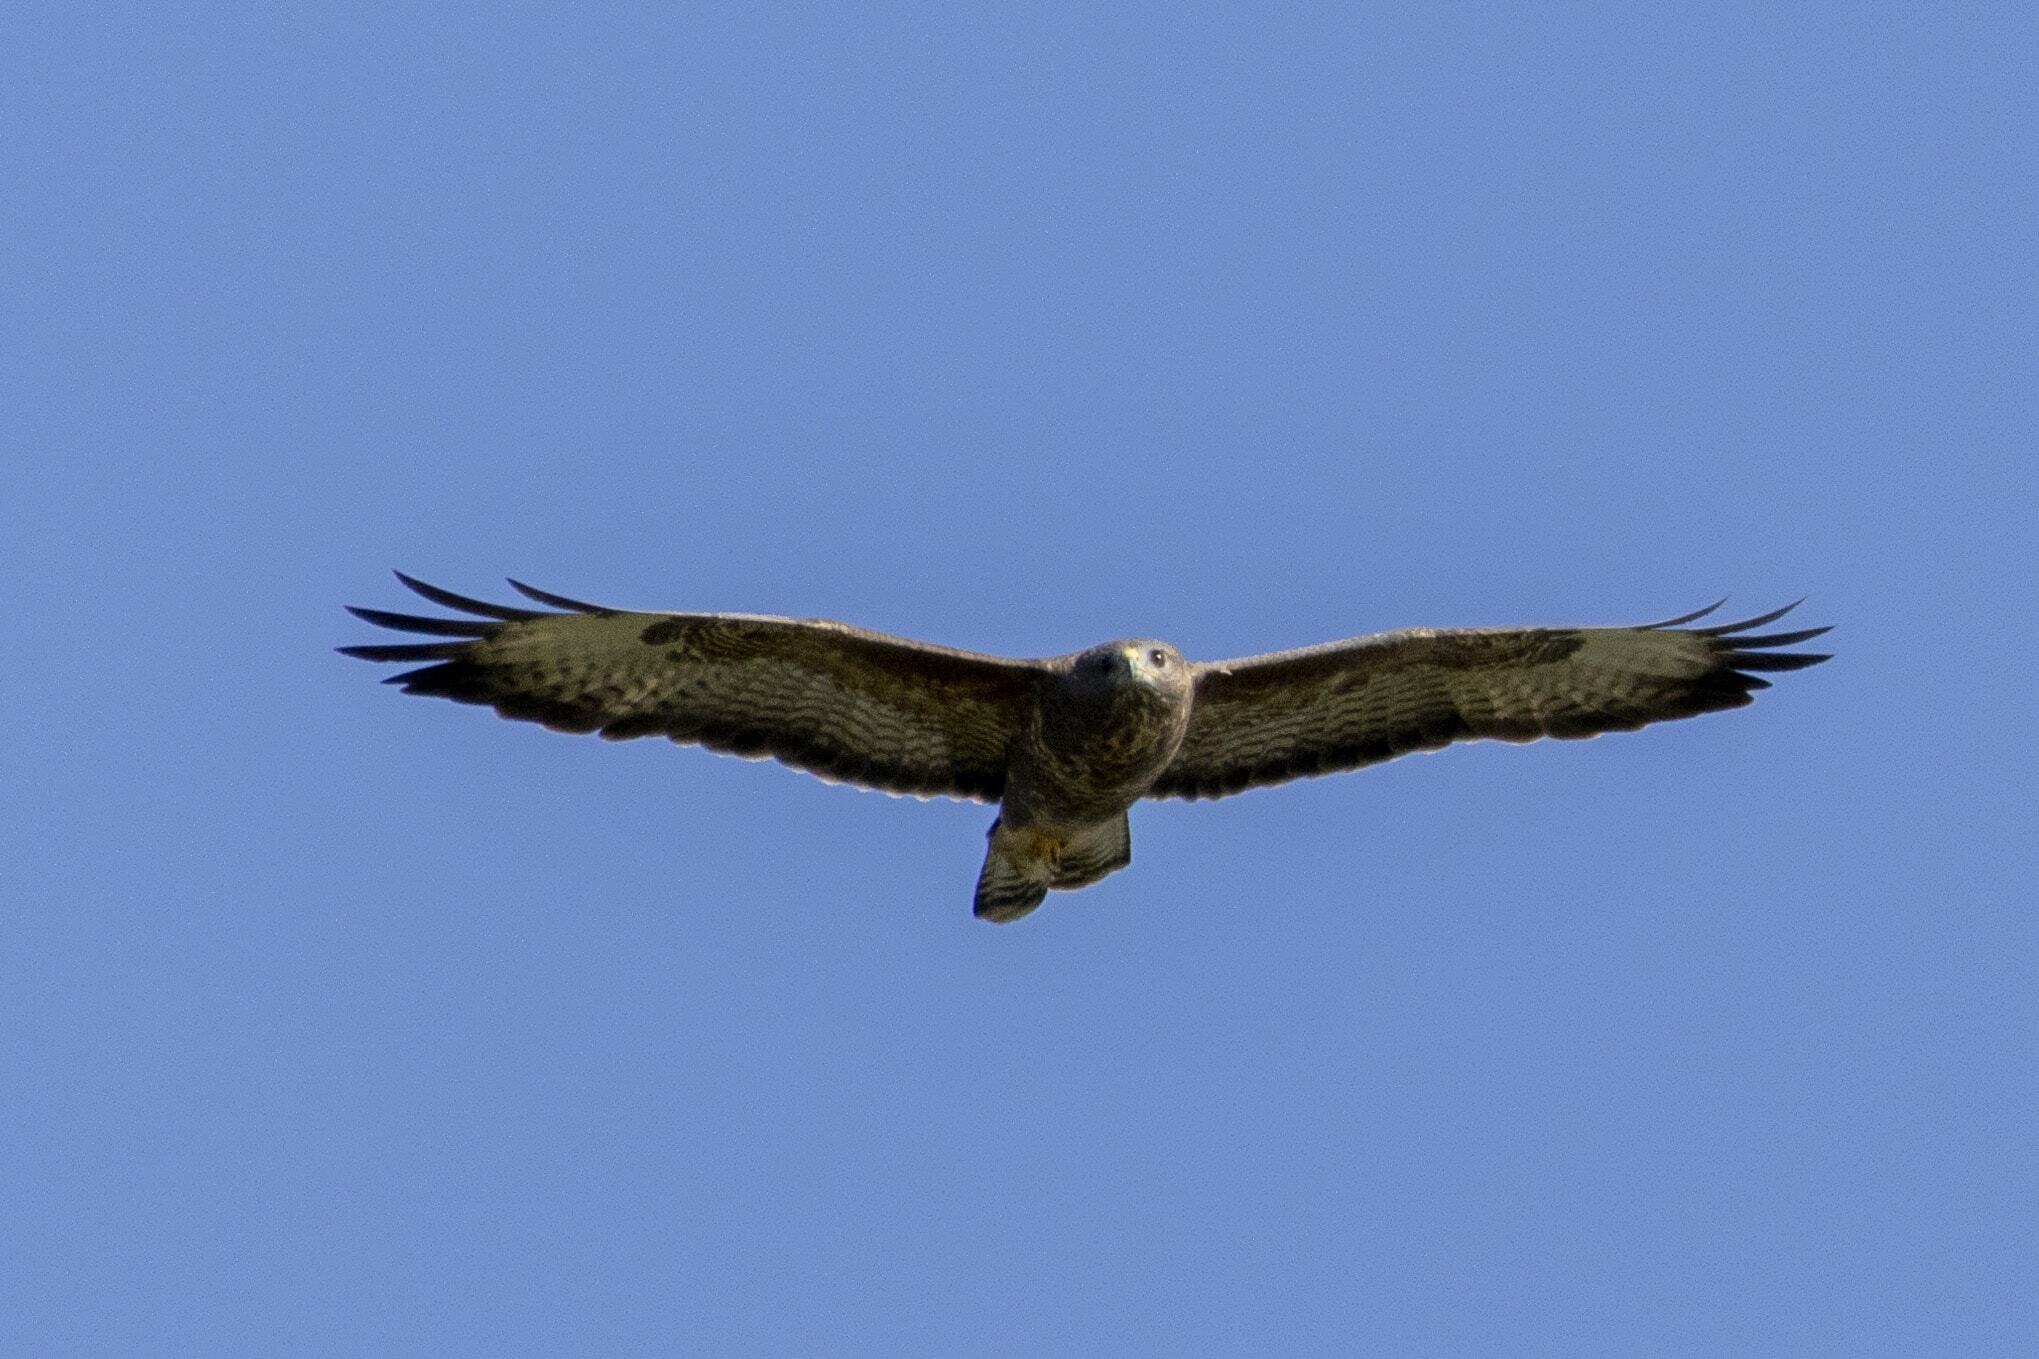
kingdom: Animalia
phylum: Chordata
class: Aves
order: Accipitriformes
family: Accipitridae
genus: Buteo
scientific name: Buteo buteo
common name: Common buzzard
